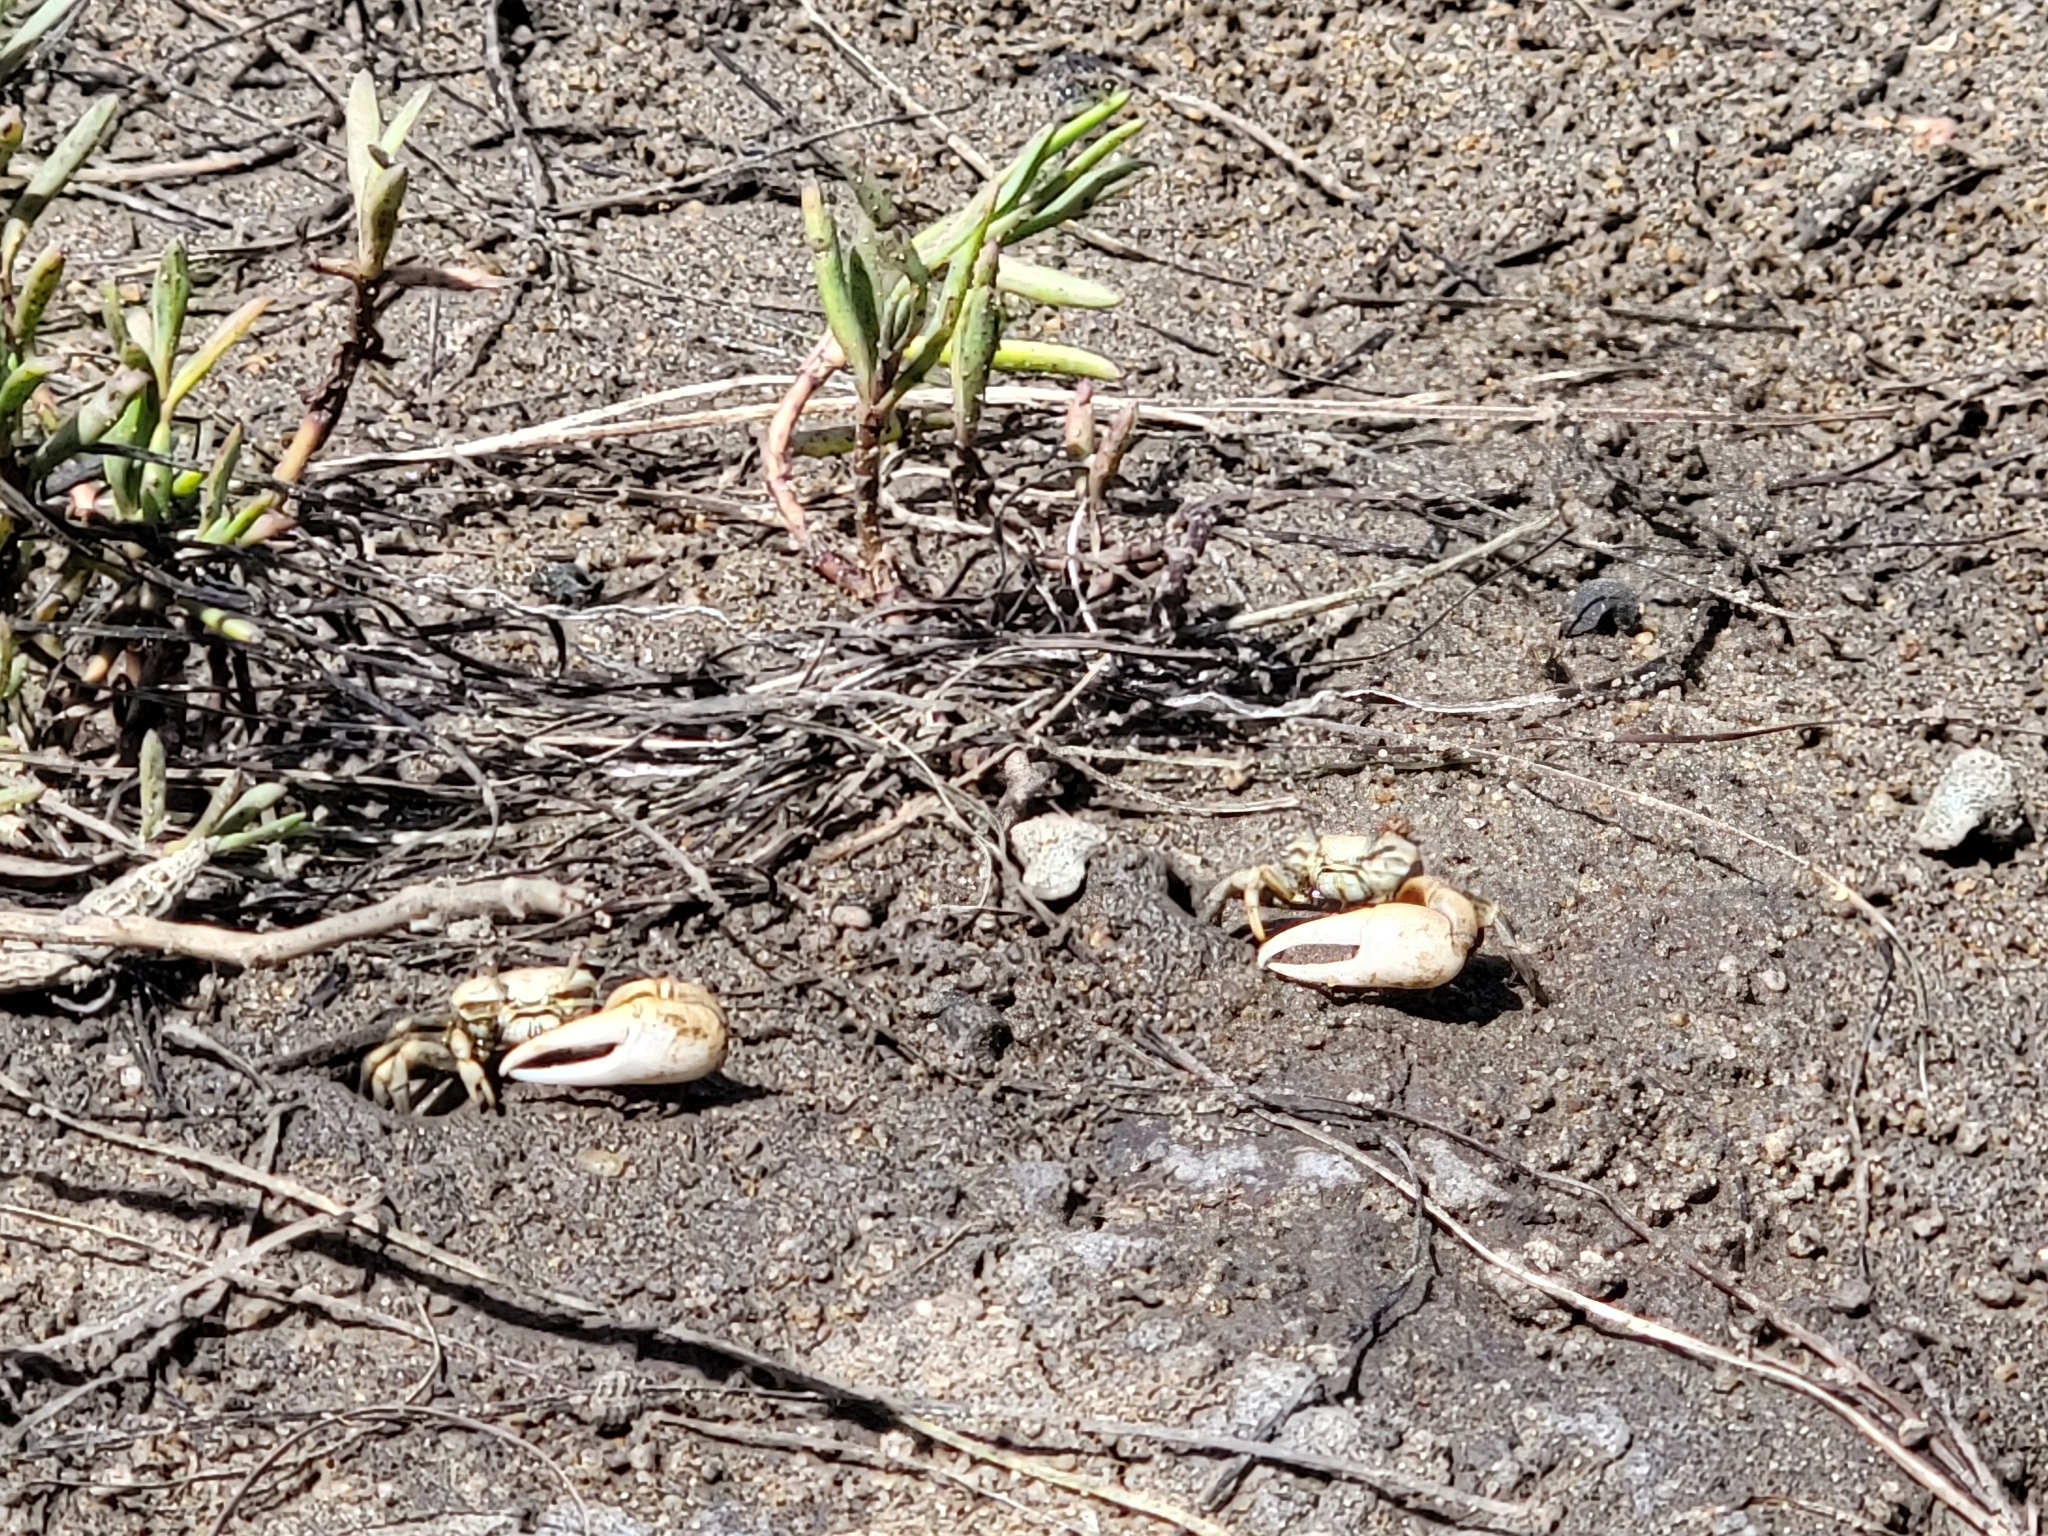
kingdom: Animalia
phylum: Arthropoda
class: Malacostraca
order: Decapoda
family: Ocypodidae
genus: Leptuca
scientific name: Leptuca crenulata
